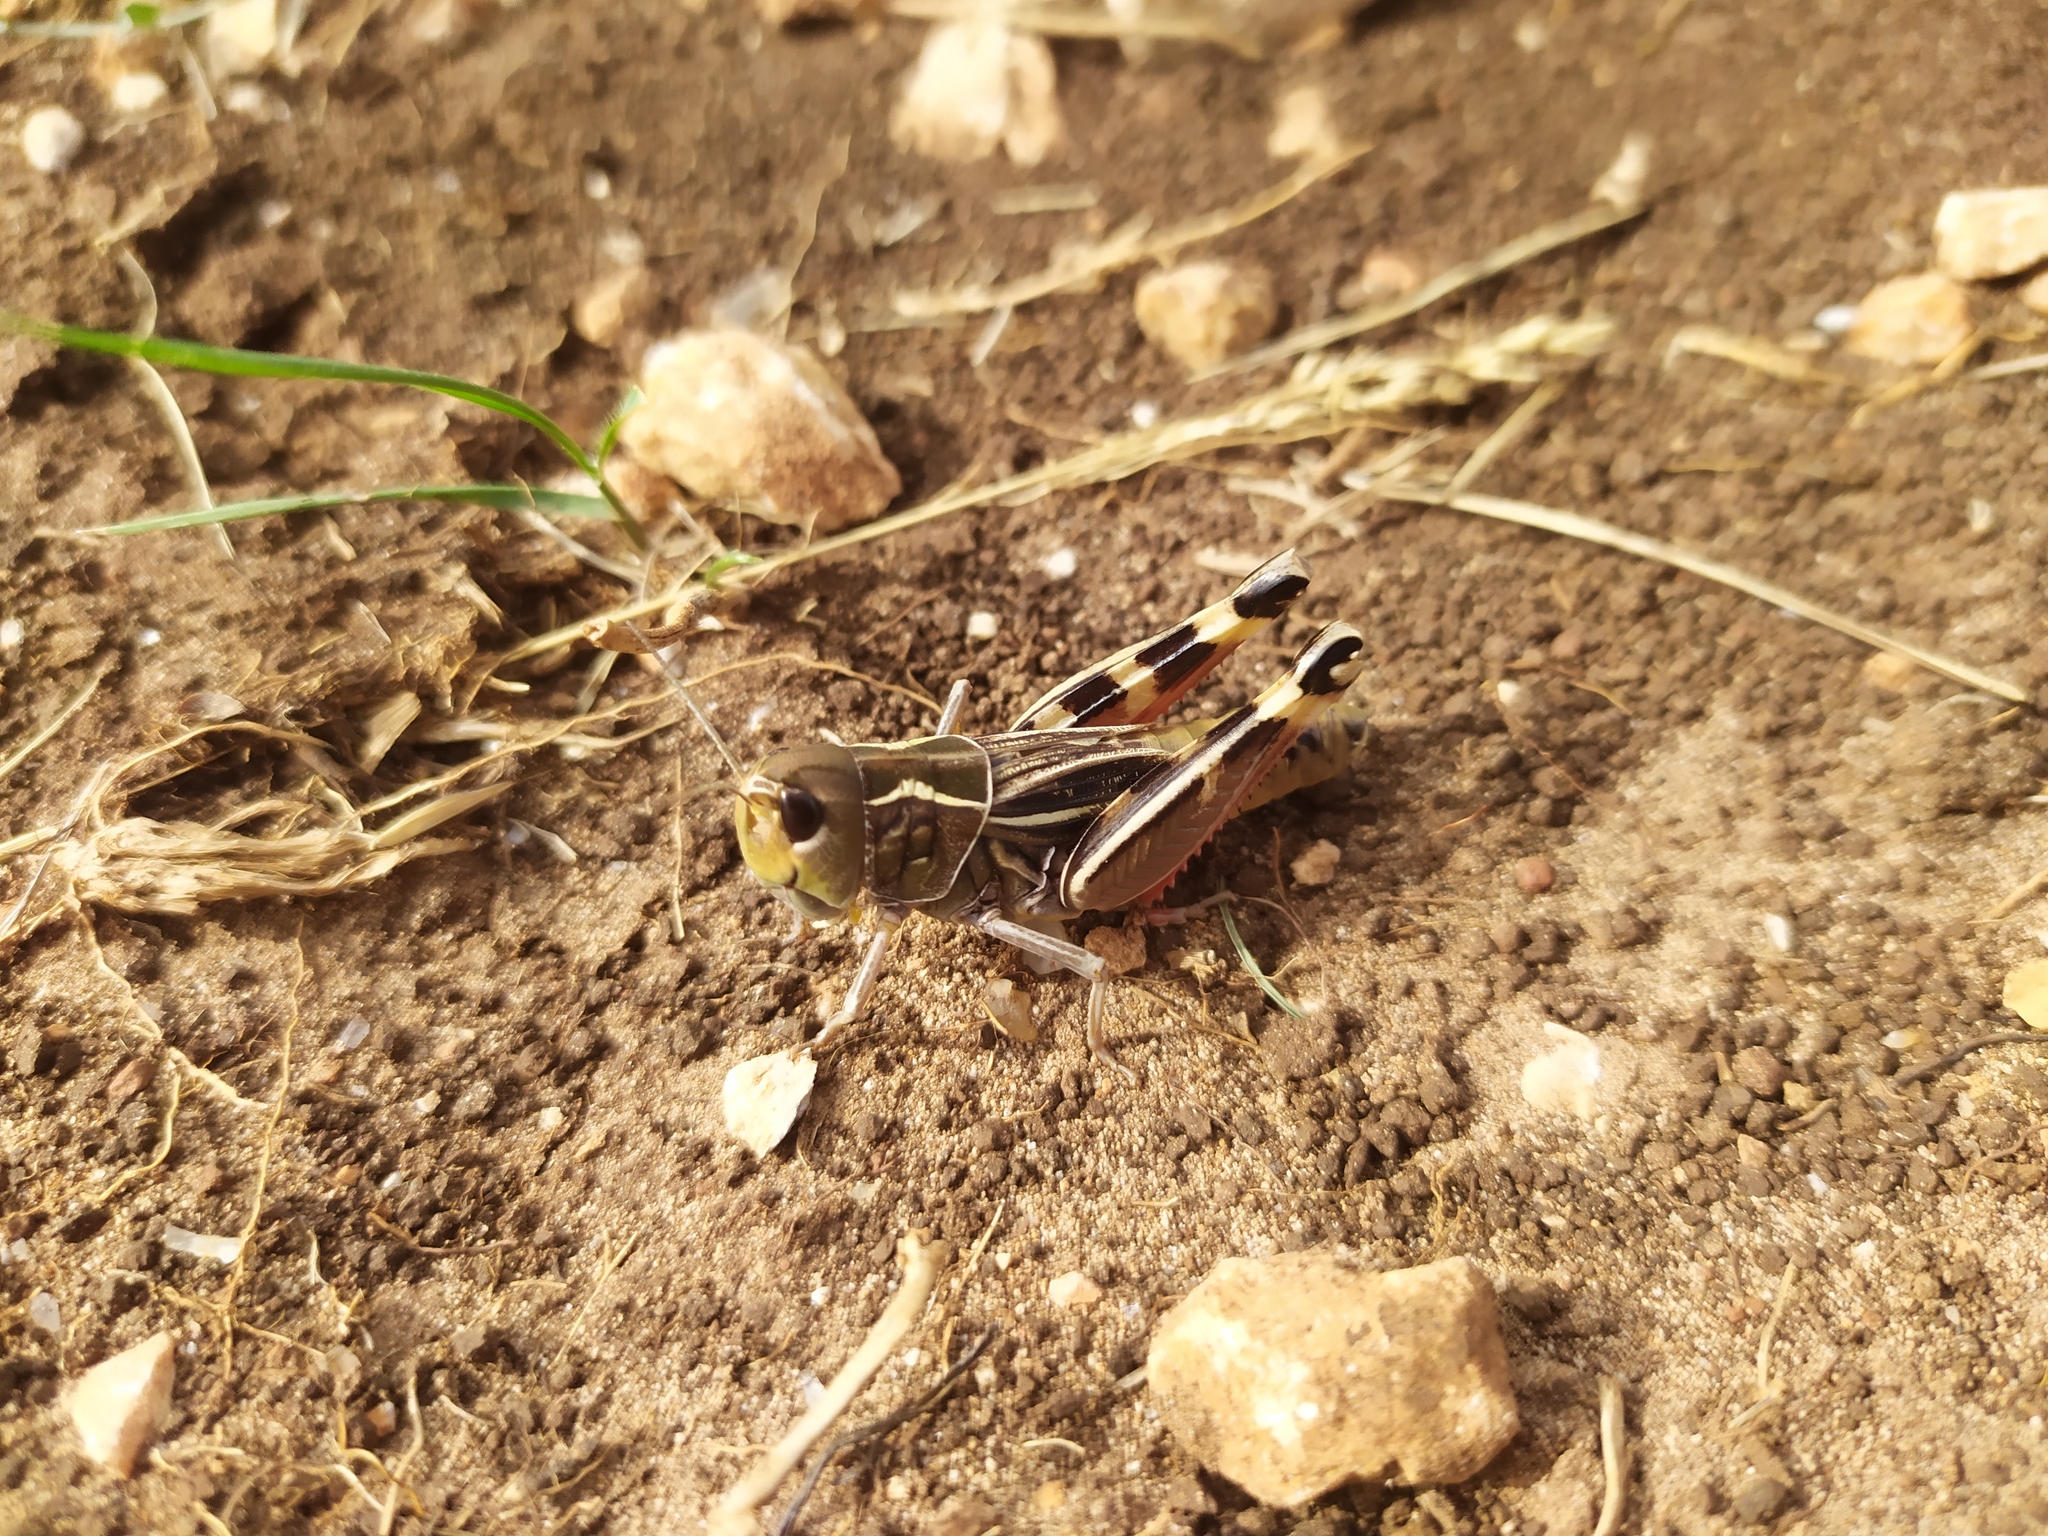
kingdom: Animalia
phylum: Arthropoda
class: Insecta
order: Orthoptera
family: Acrididae
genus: Arcyptera
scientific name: Arcyptera brevipennis
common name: Western banded grasshopper
